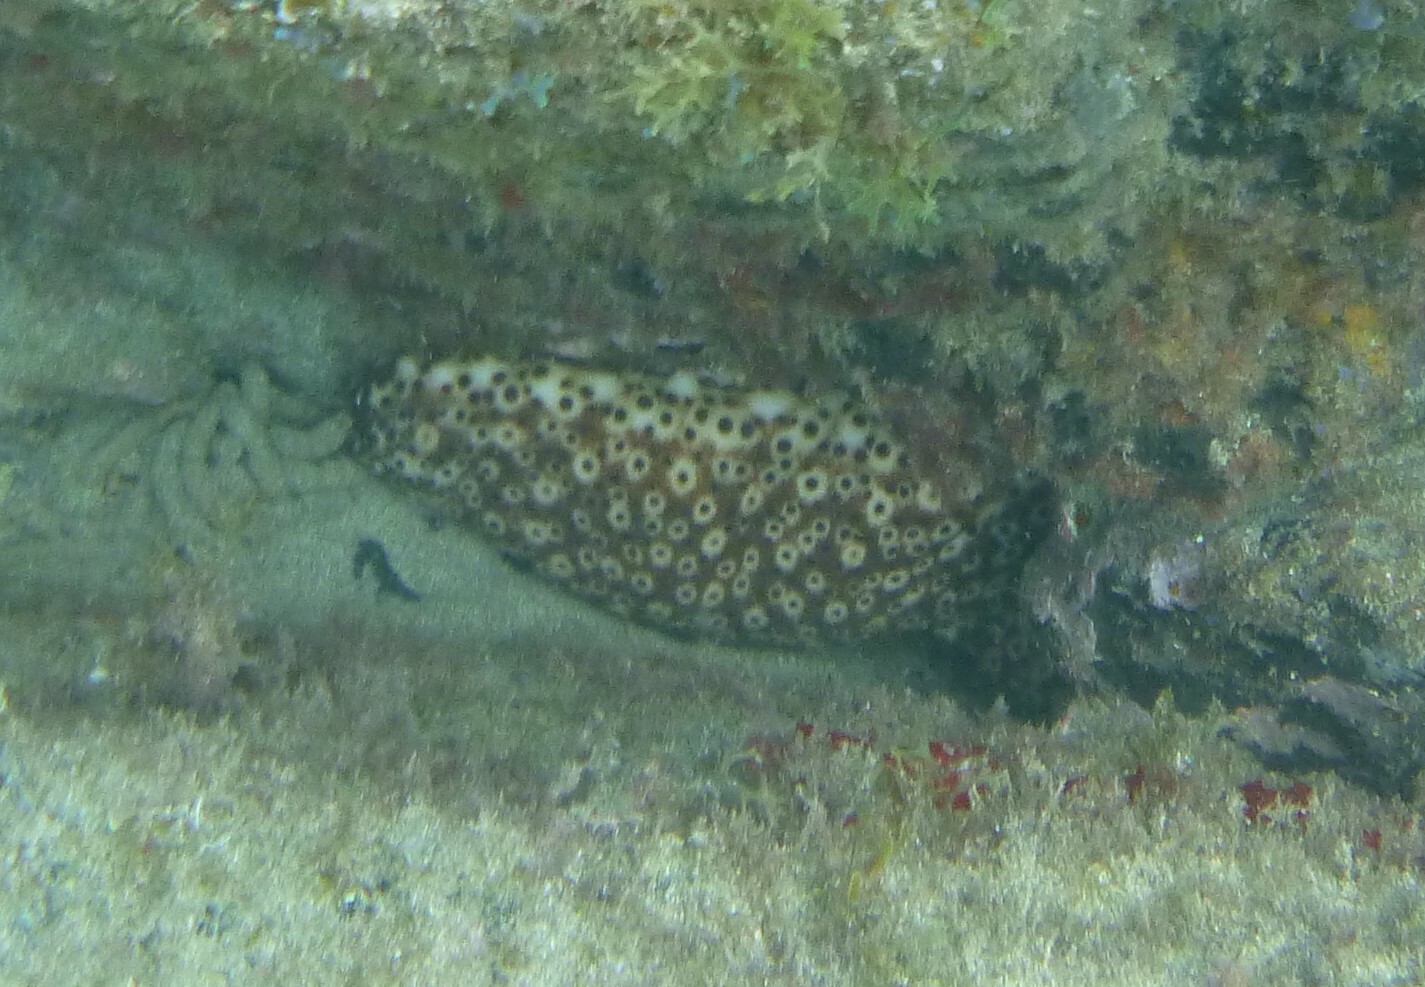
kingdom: Animalia
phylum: Echinodermata
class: Holothuroidea
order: Holothuriida
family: Holothuriidae
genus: Holothuria
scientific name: Holothuria sanctori
